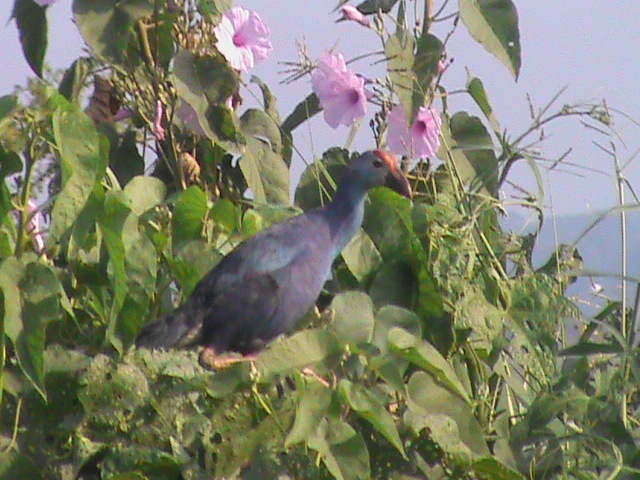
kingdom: Animalia
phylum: Chordata
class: Aves
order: Gruiformes
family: Rallidae
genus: Porphyrio
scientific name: Porphyrio porphyrio
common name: Purple swamphen
